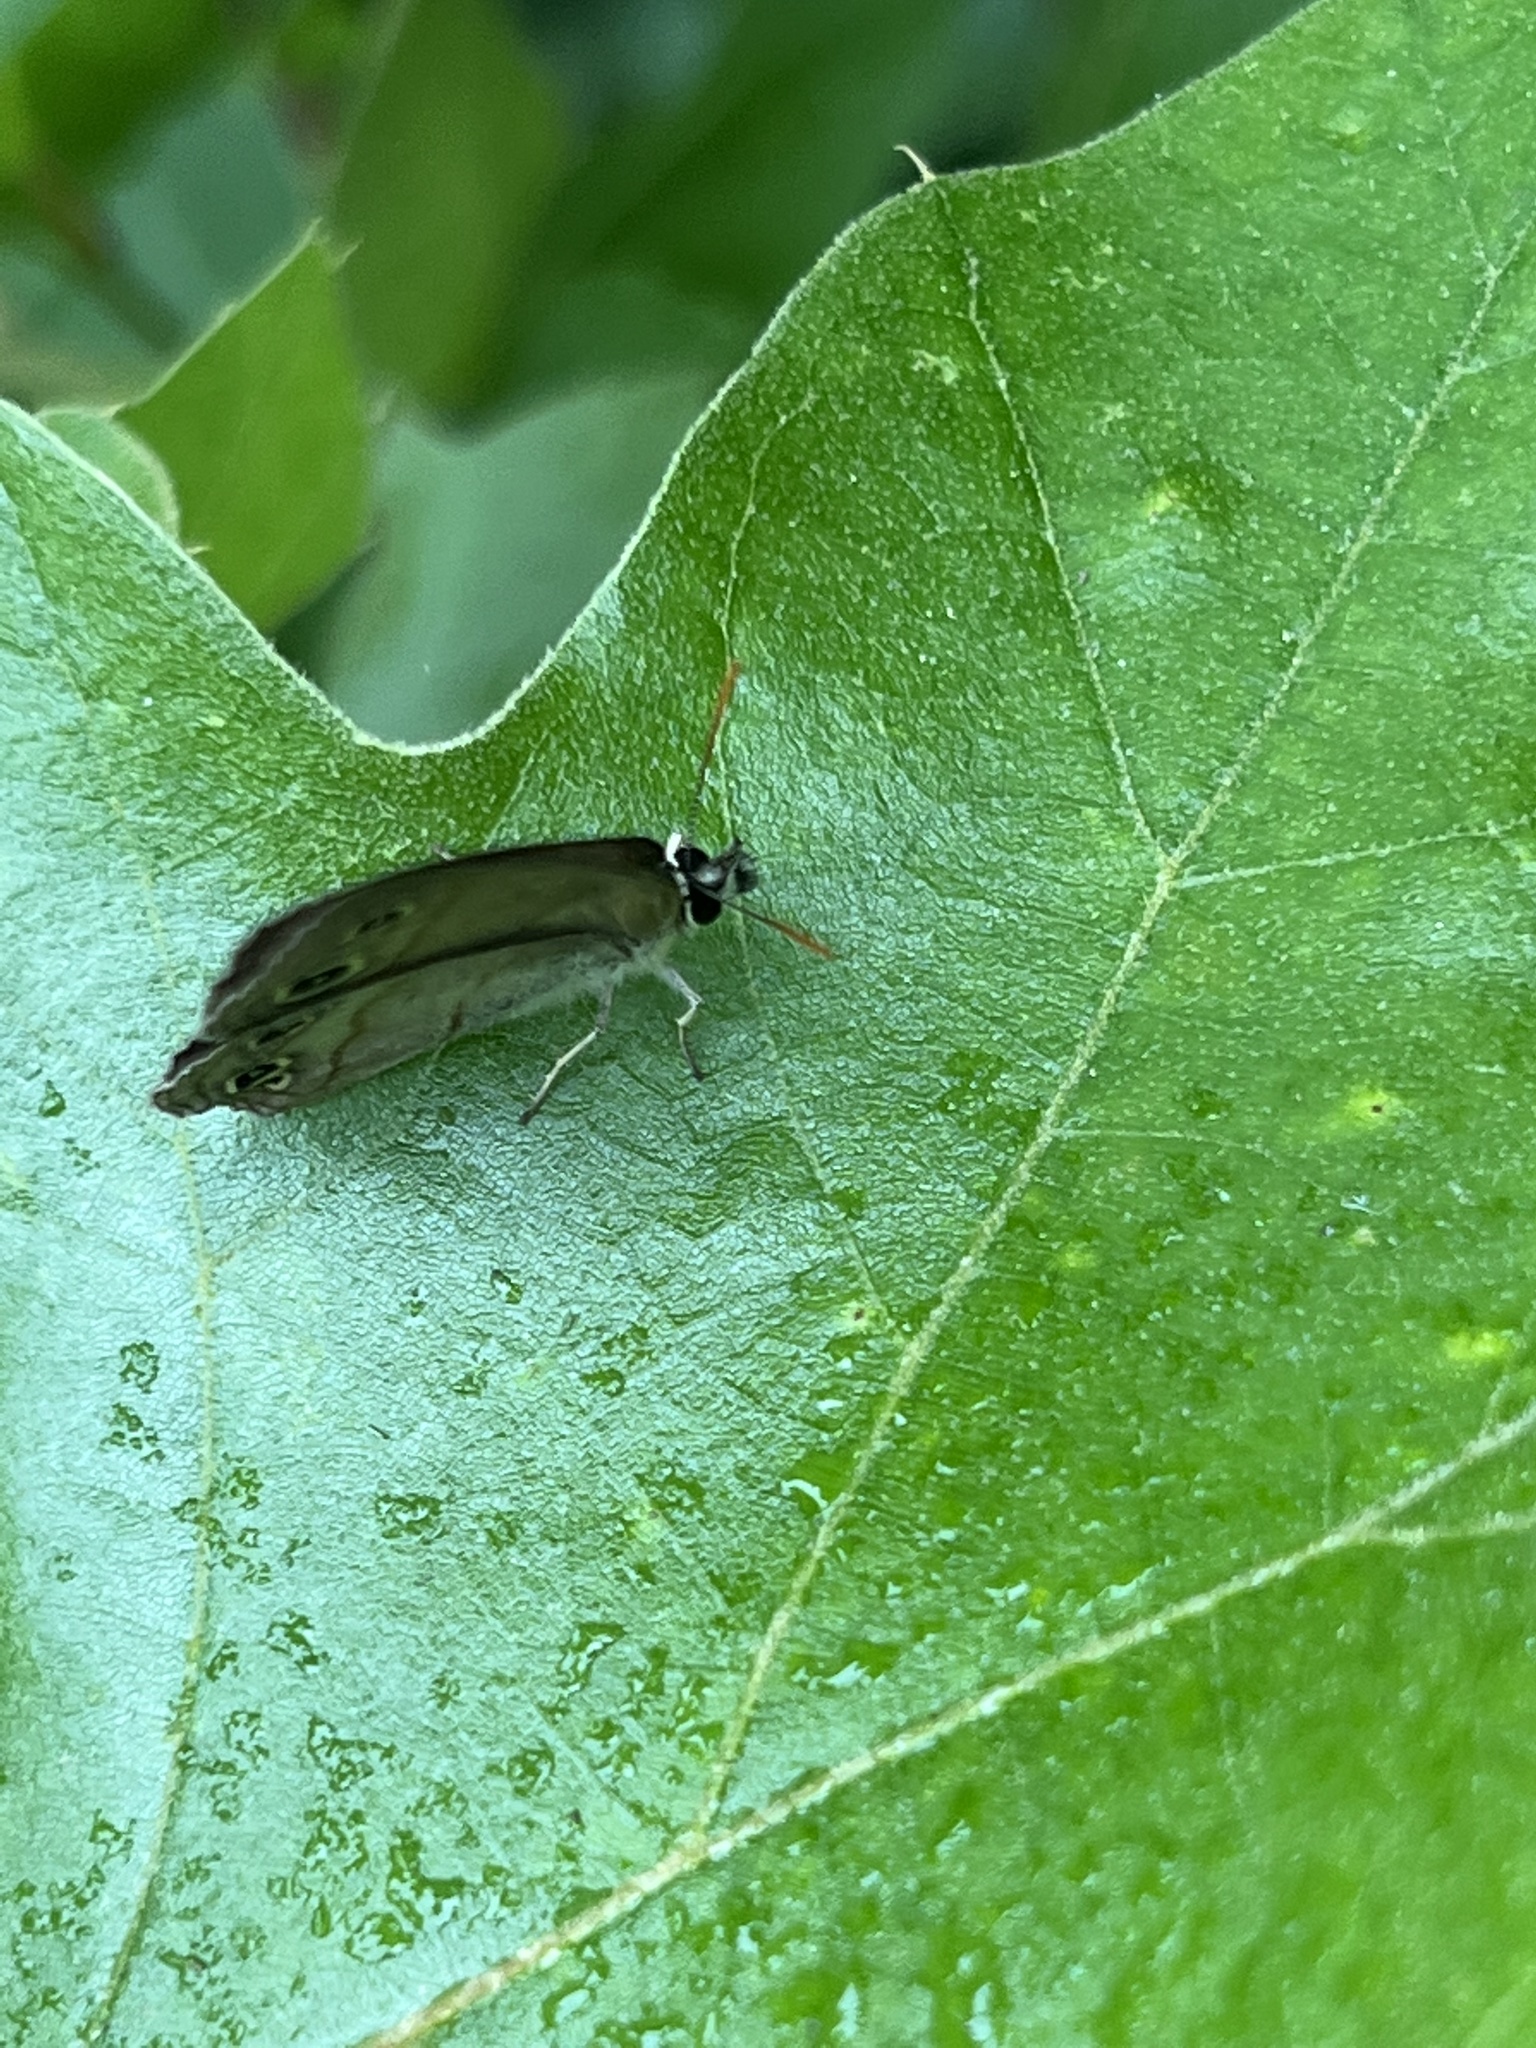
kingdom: Animalia
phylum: Arthropoda
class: Insecta
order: Lepidoptera
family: Nymphalidae
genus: Euptychia
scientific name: Euptychia cymela
